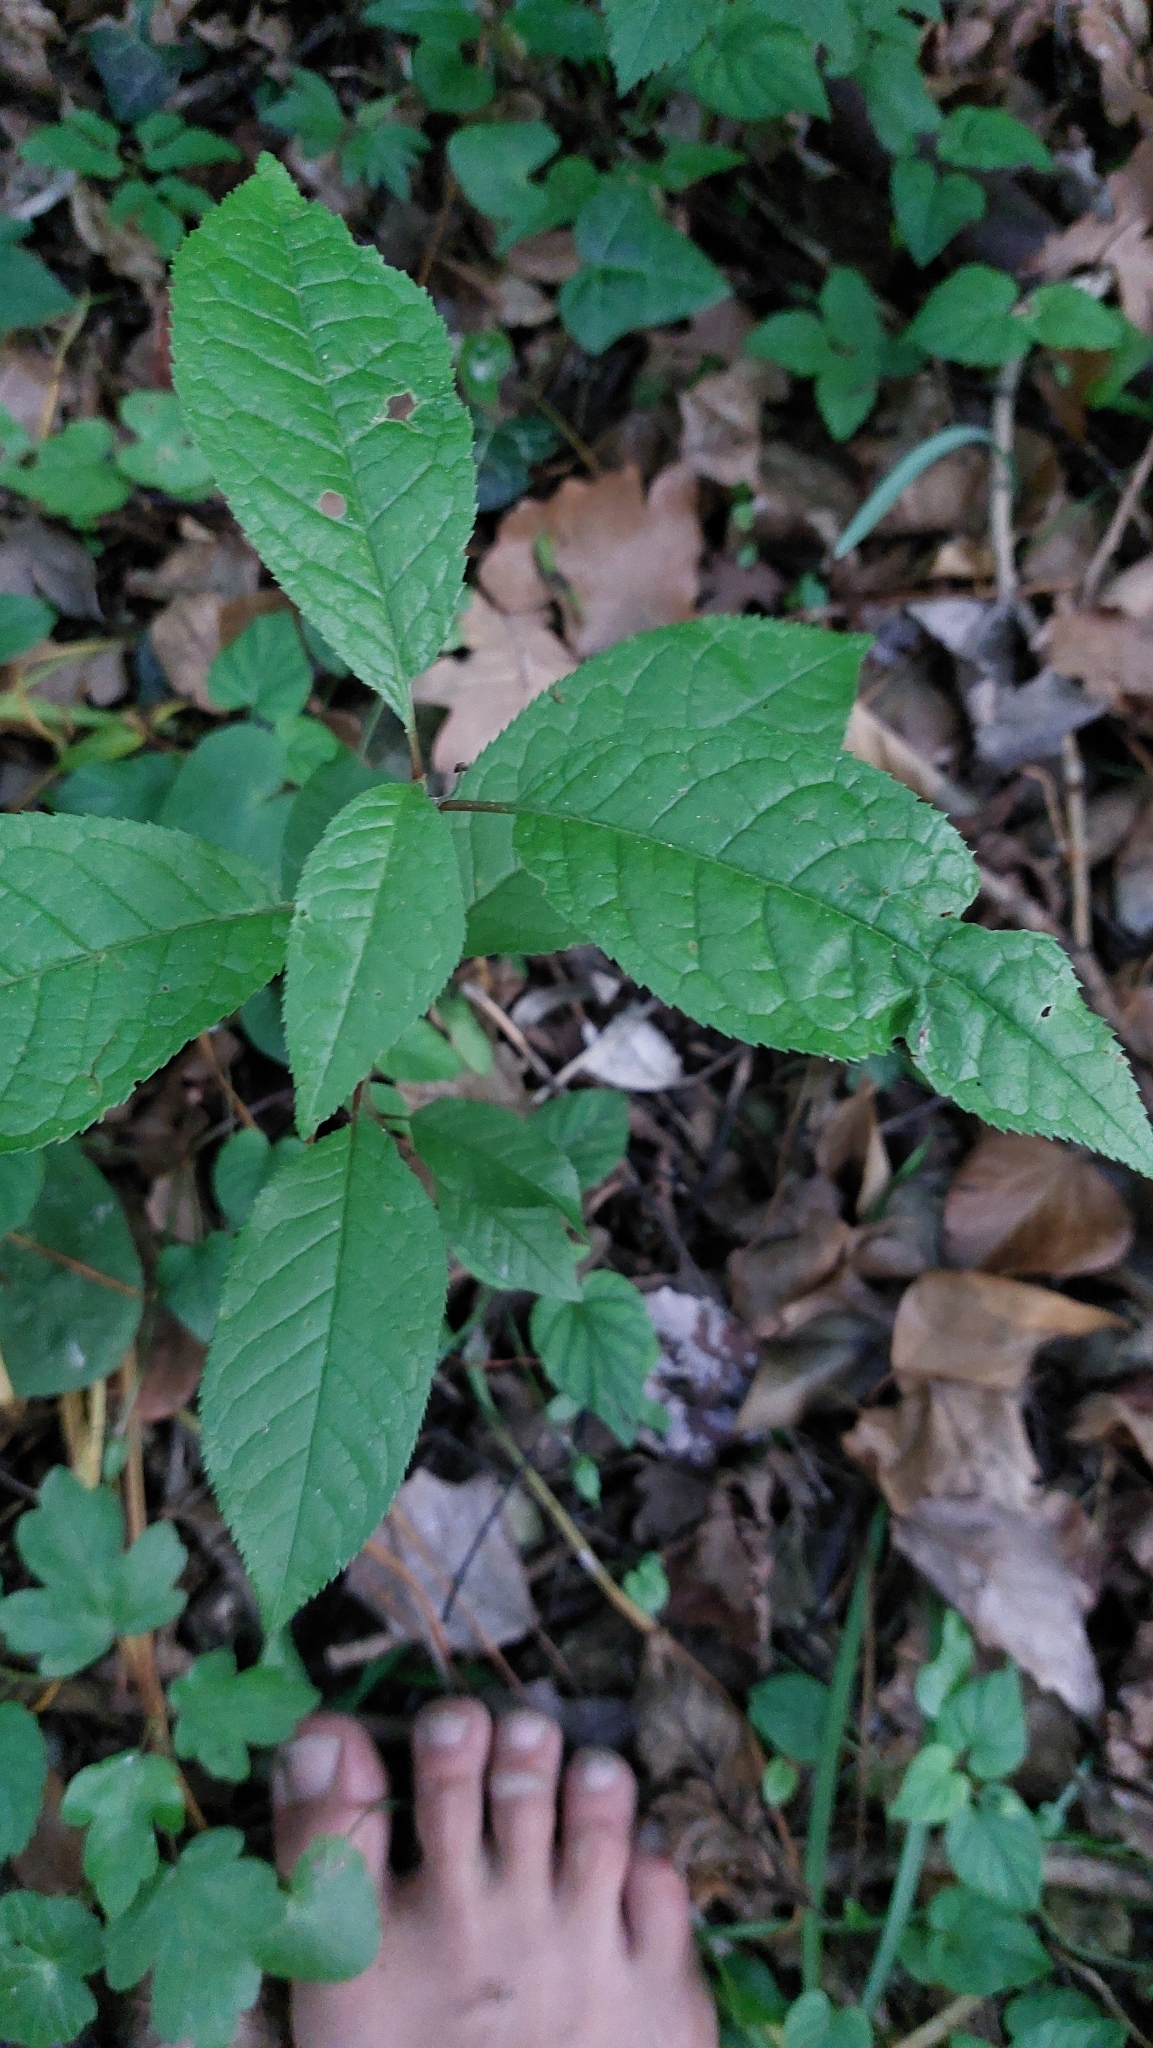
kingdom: Plantae
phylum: Tracheophyta
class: Magnoliopsida
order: Rosales
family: Rosaceae
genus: Prunus
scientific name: Prunus padus
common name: Bird cherry
